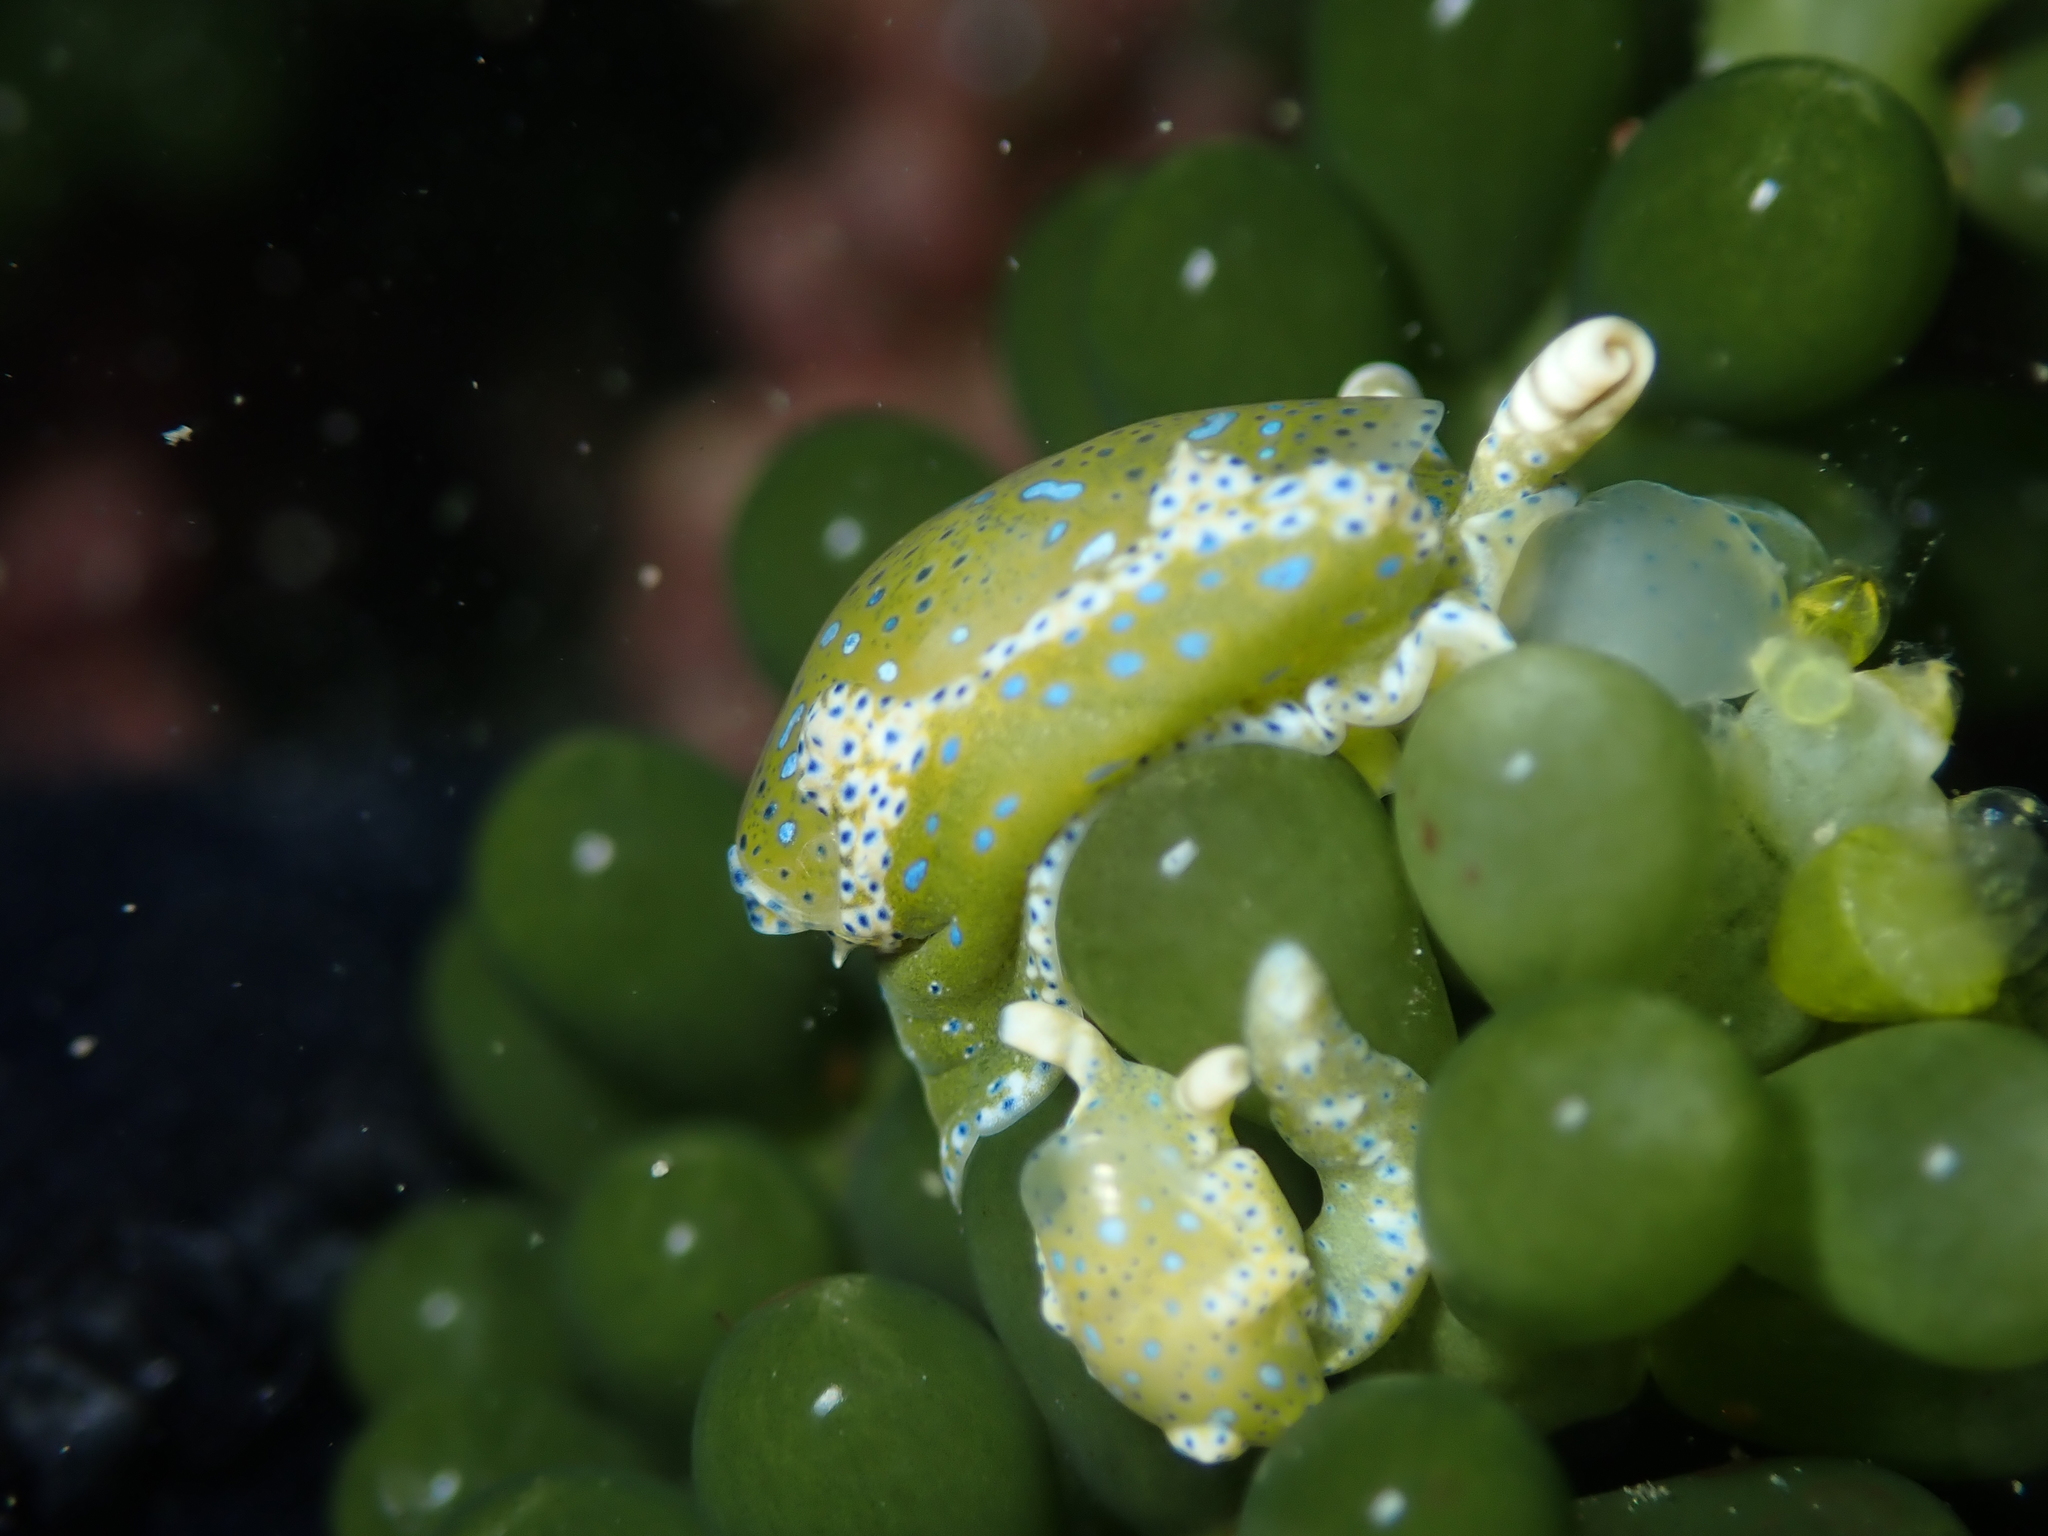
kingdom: Animalia
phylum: Mollusca
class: Gastropoda
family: Oxynoidae
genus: Oxynoe
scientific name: Oxynoe viridis
